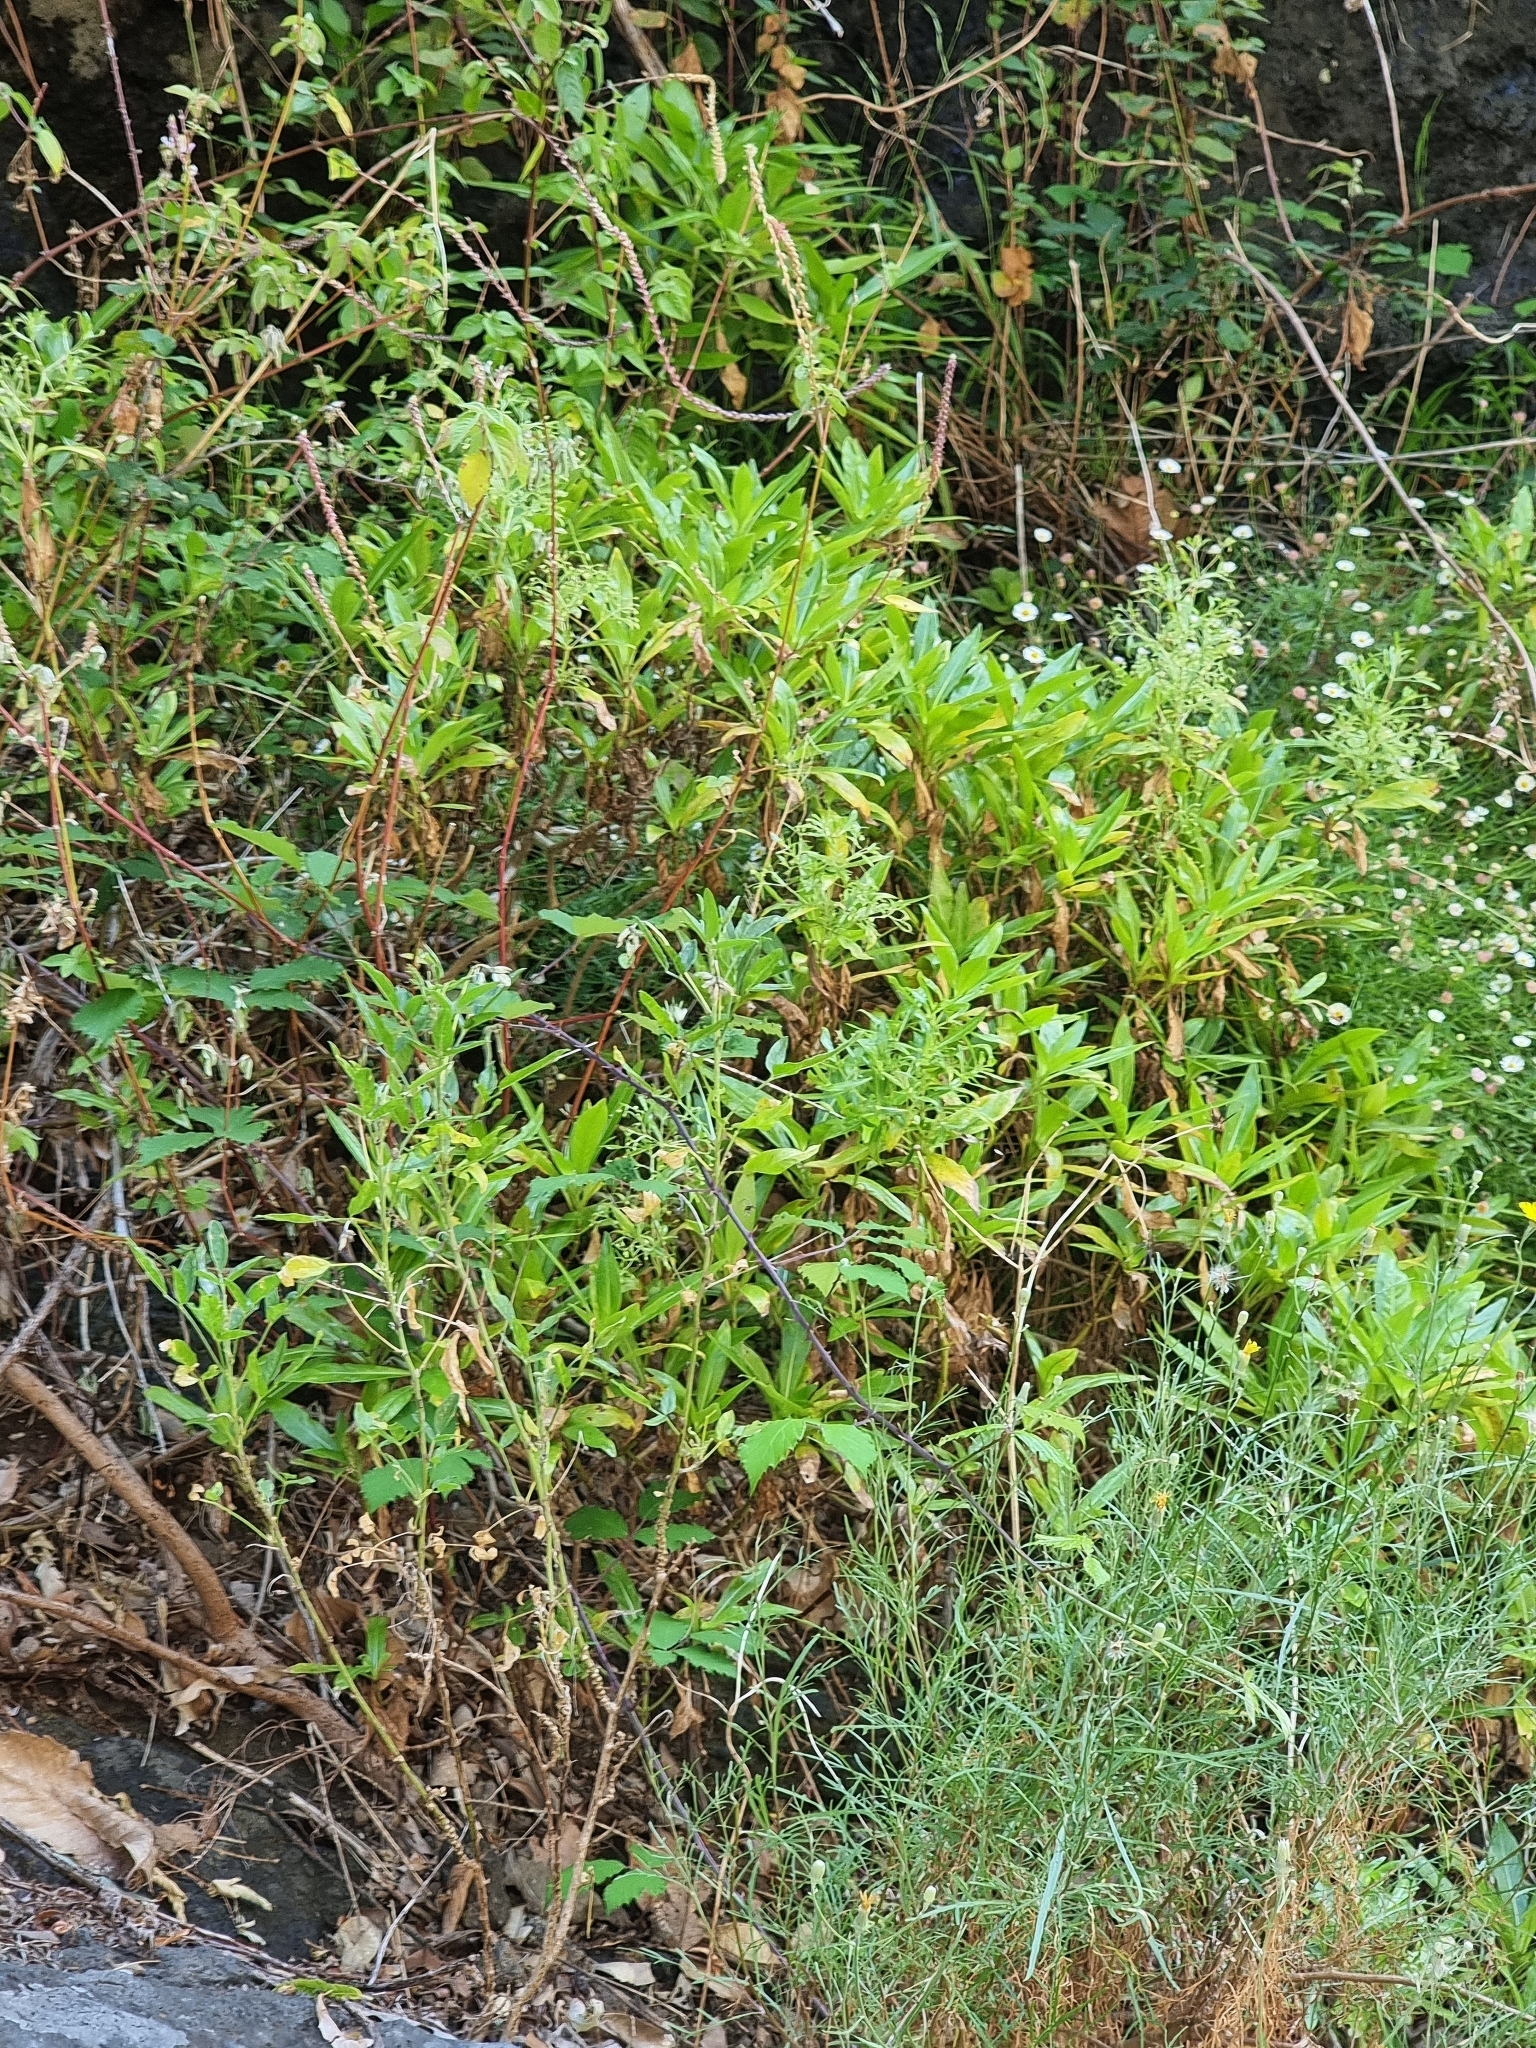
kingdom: Plantae
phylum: Tracheophyta
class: Magnoliopsida
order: Gentianales
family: Rubiaceae
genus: Phyllis
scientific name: Phyllis nobla
